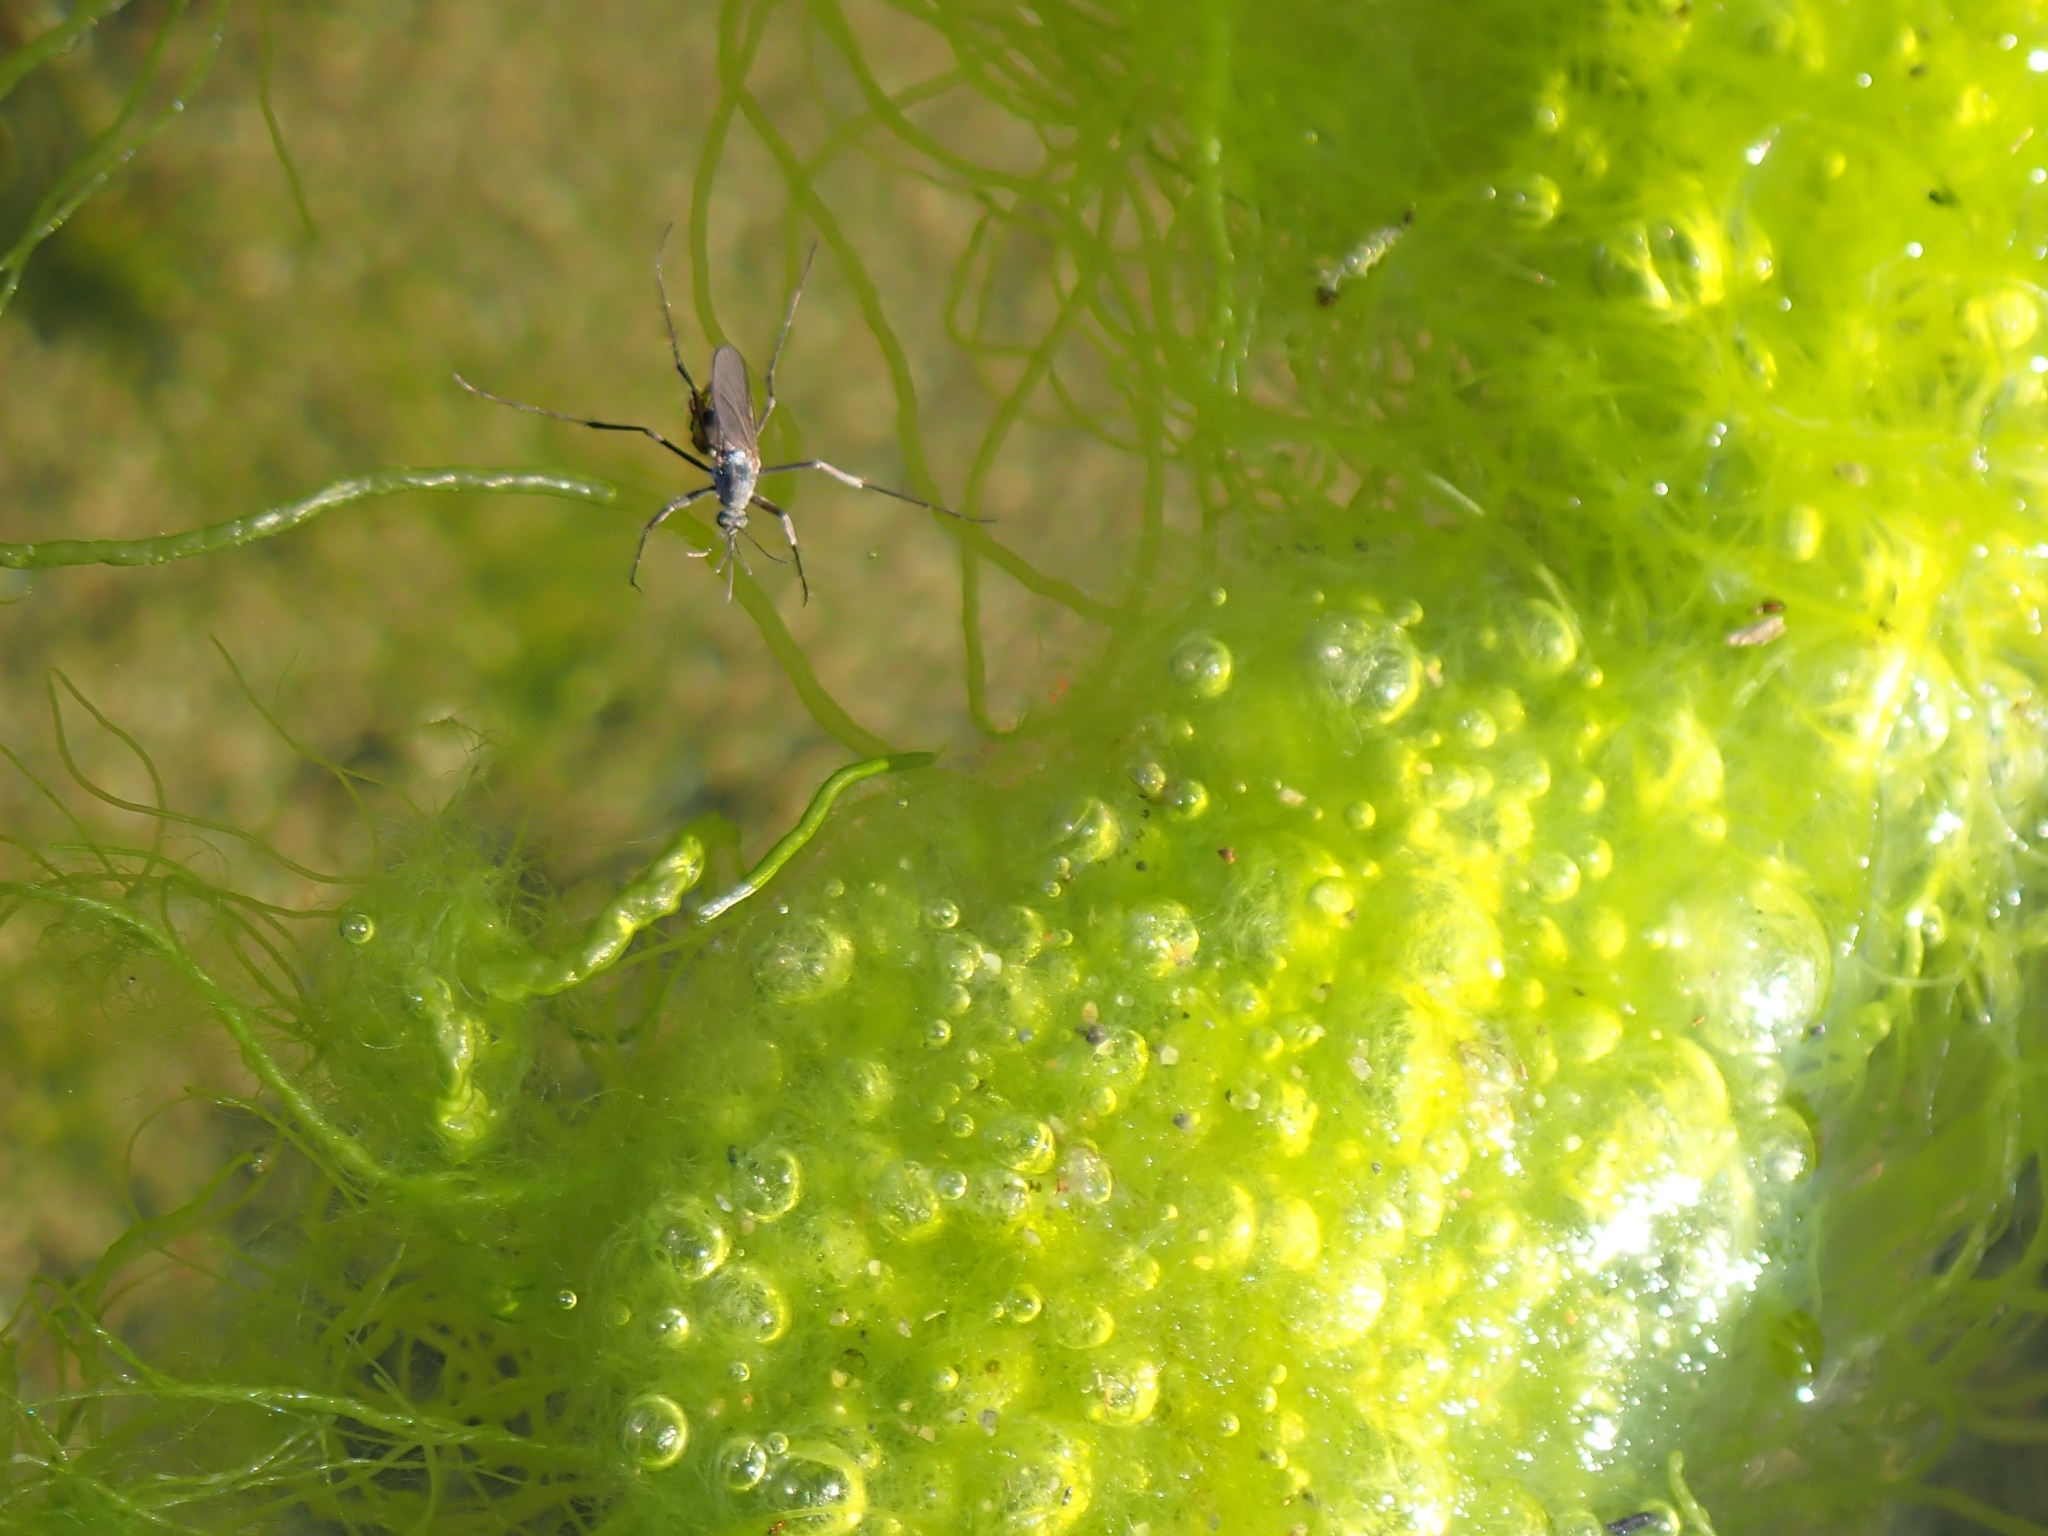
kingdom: Animalia
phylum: Arthropoda
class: Insecta
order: Diptera
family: Culicidae
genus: Opifex
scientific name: Opifex fuscus
